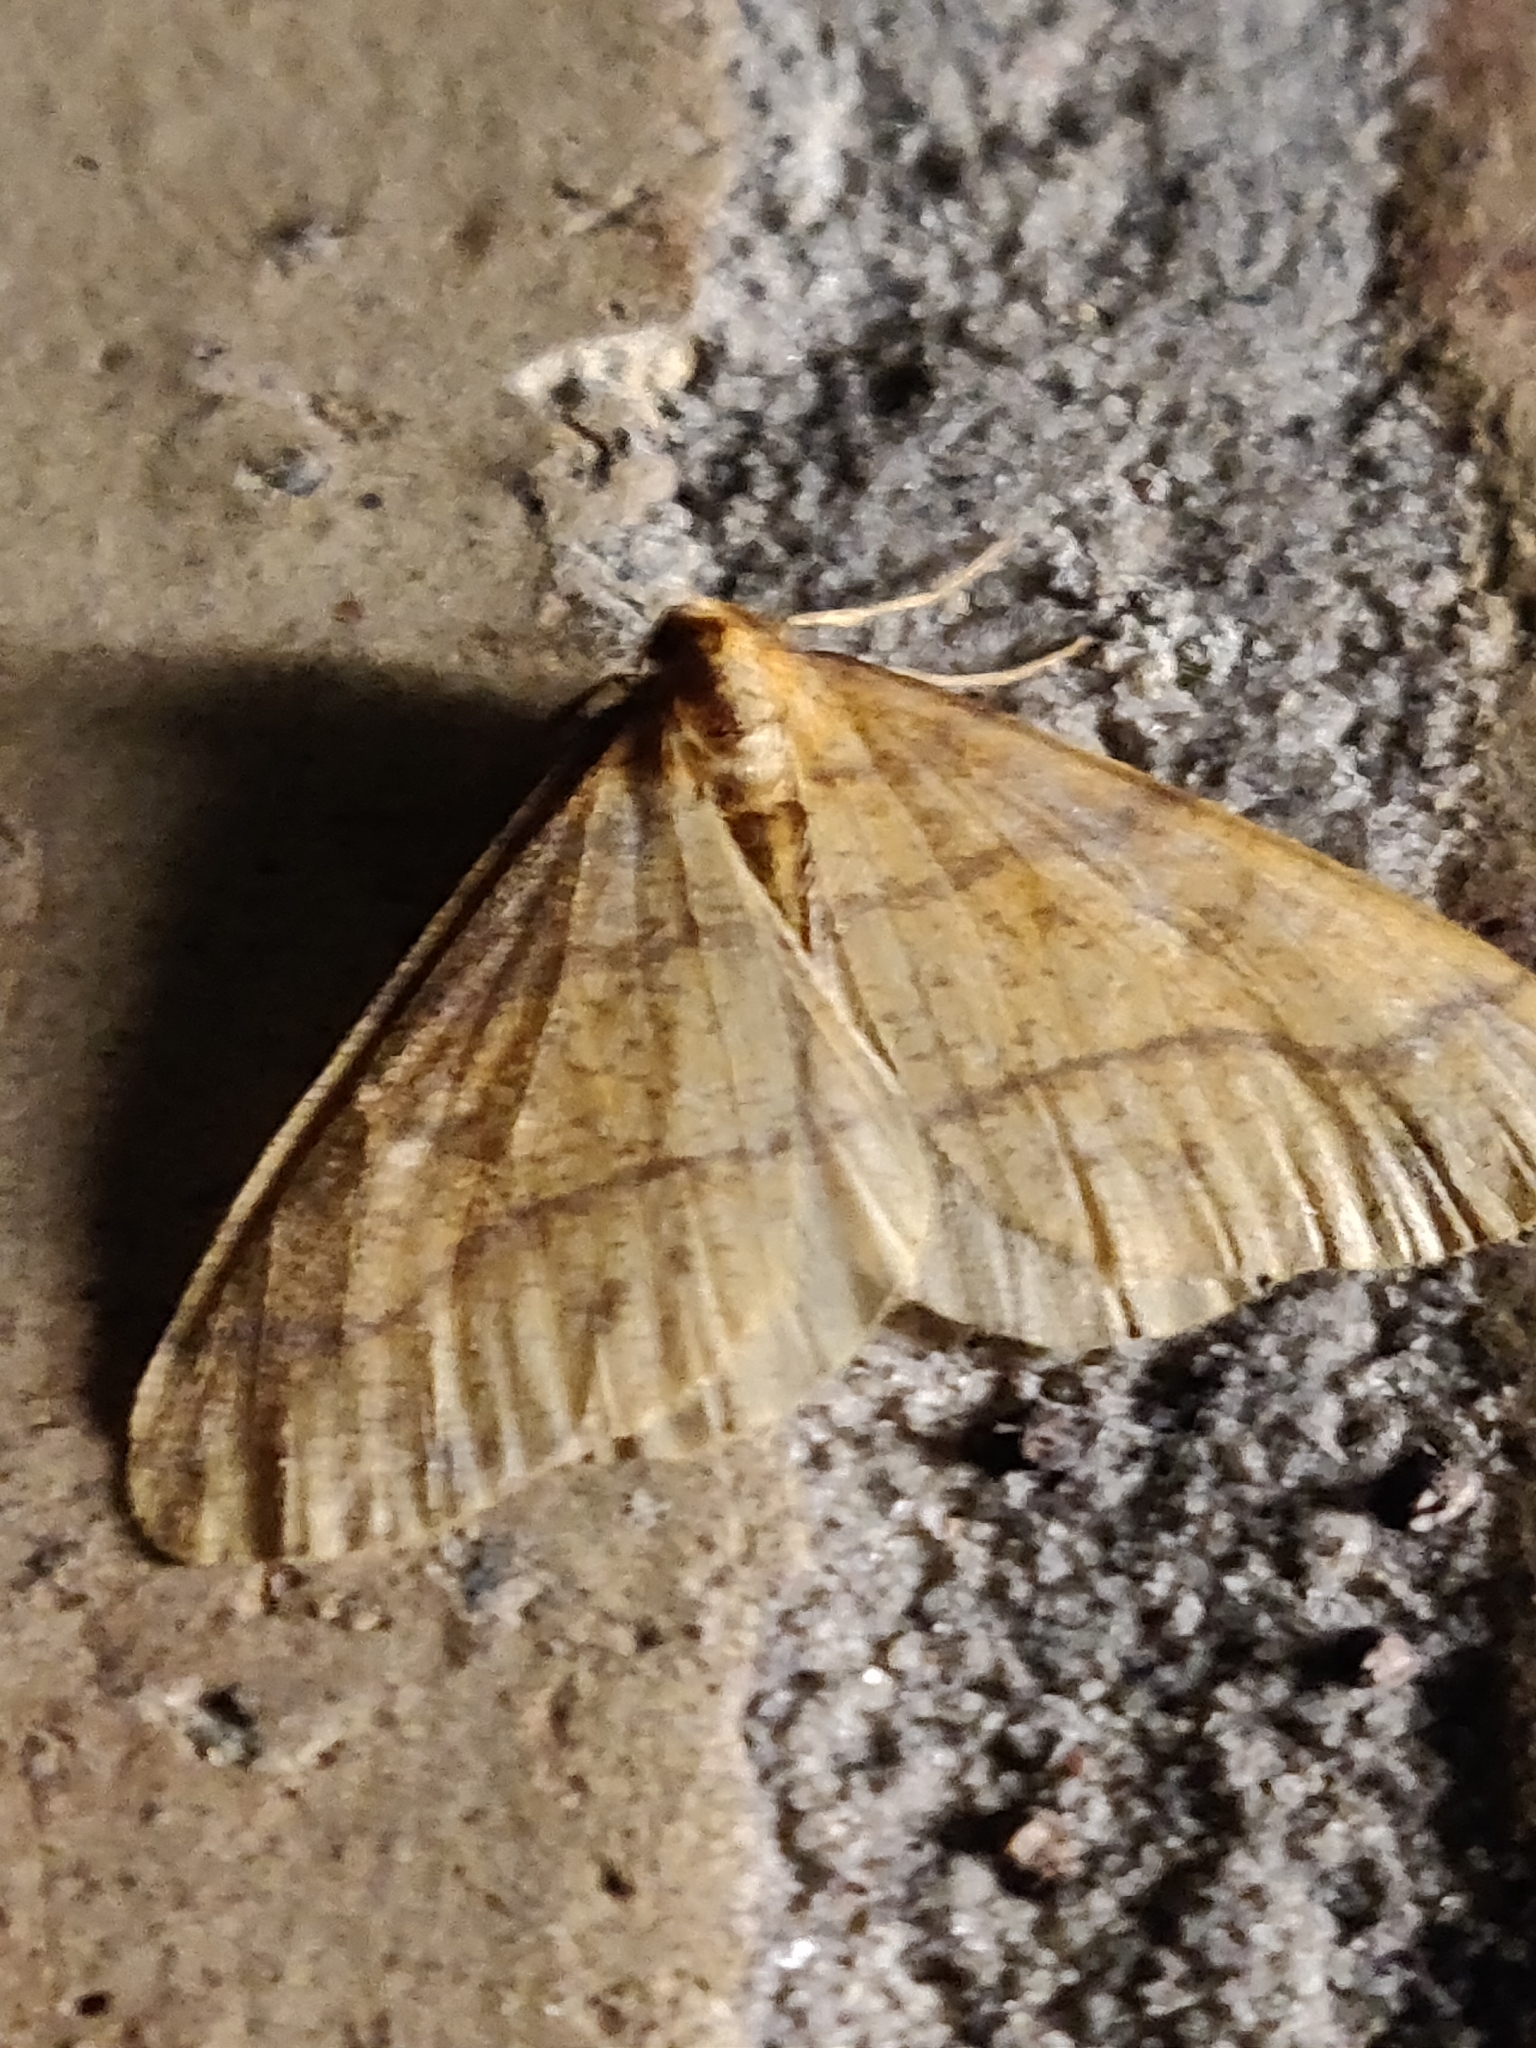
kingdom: Animalia
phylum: Arthropoda
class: Insecta
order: Lepidoptera
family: Geometridae
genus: Agriopis
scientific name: Agriopis aurantiaria
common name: Scarce umber
